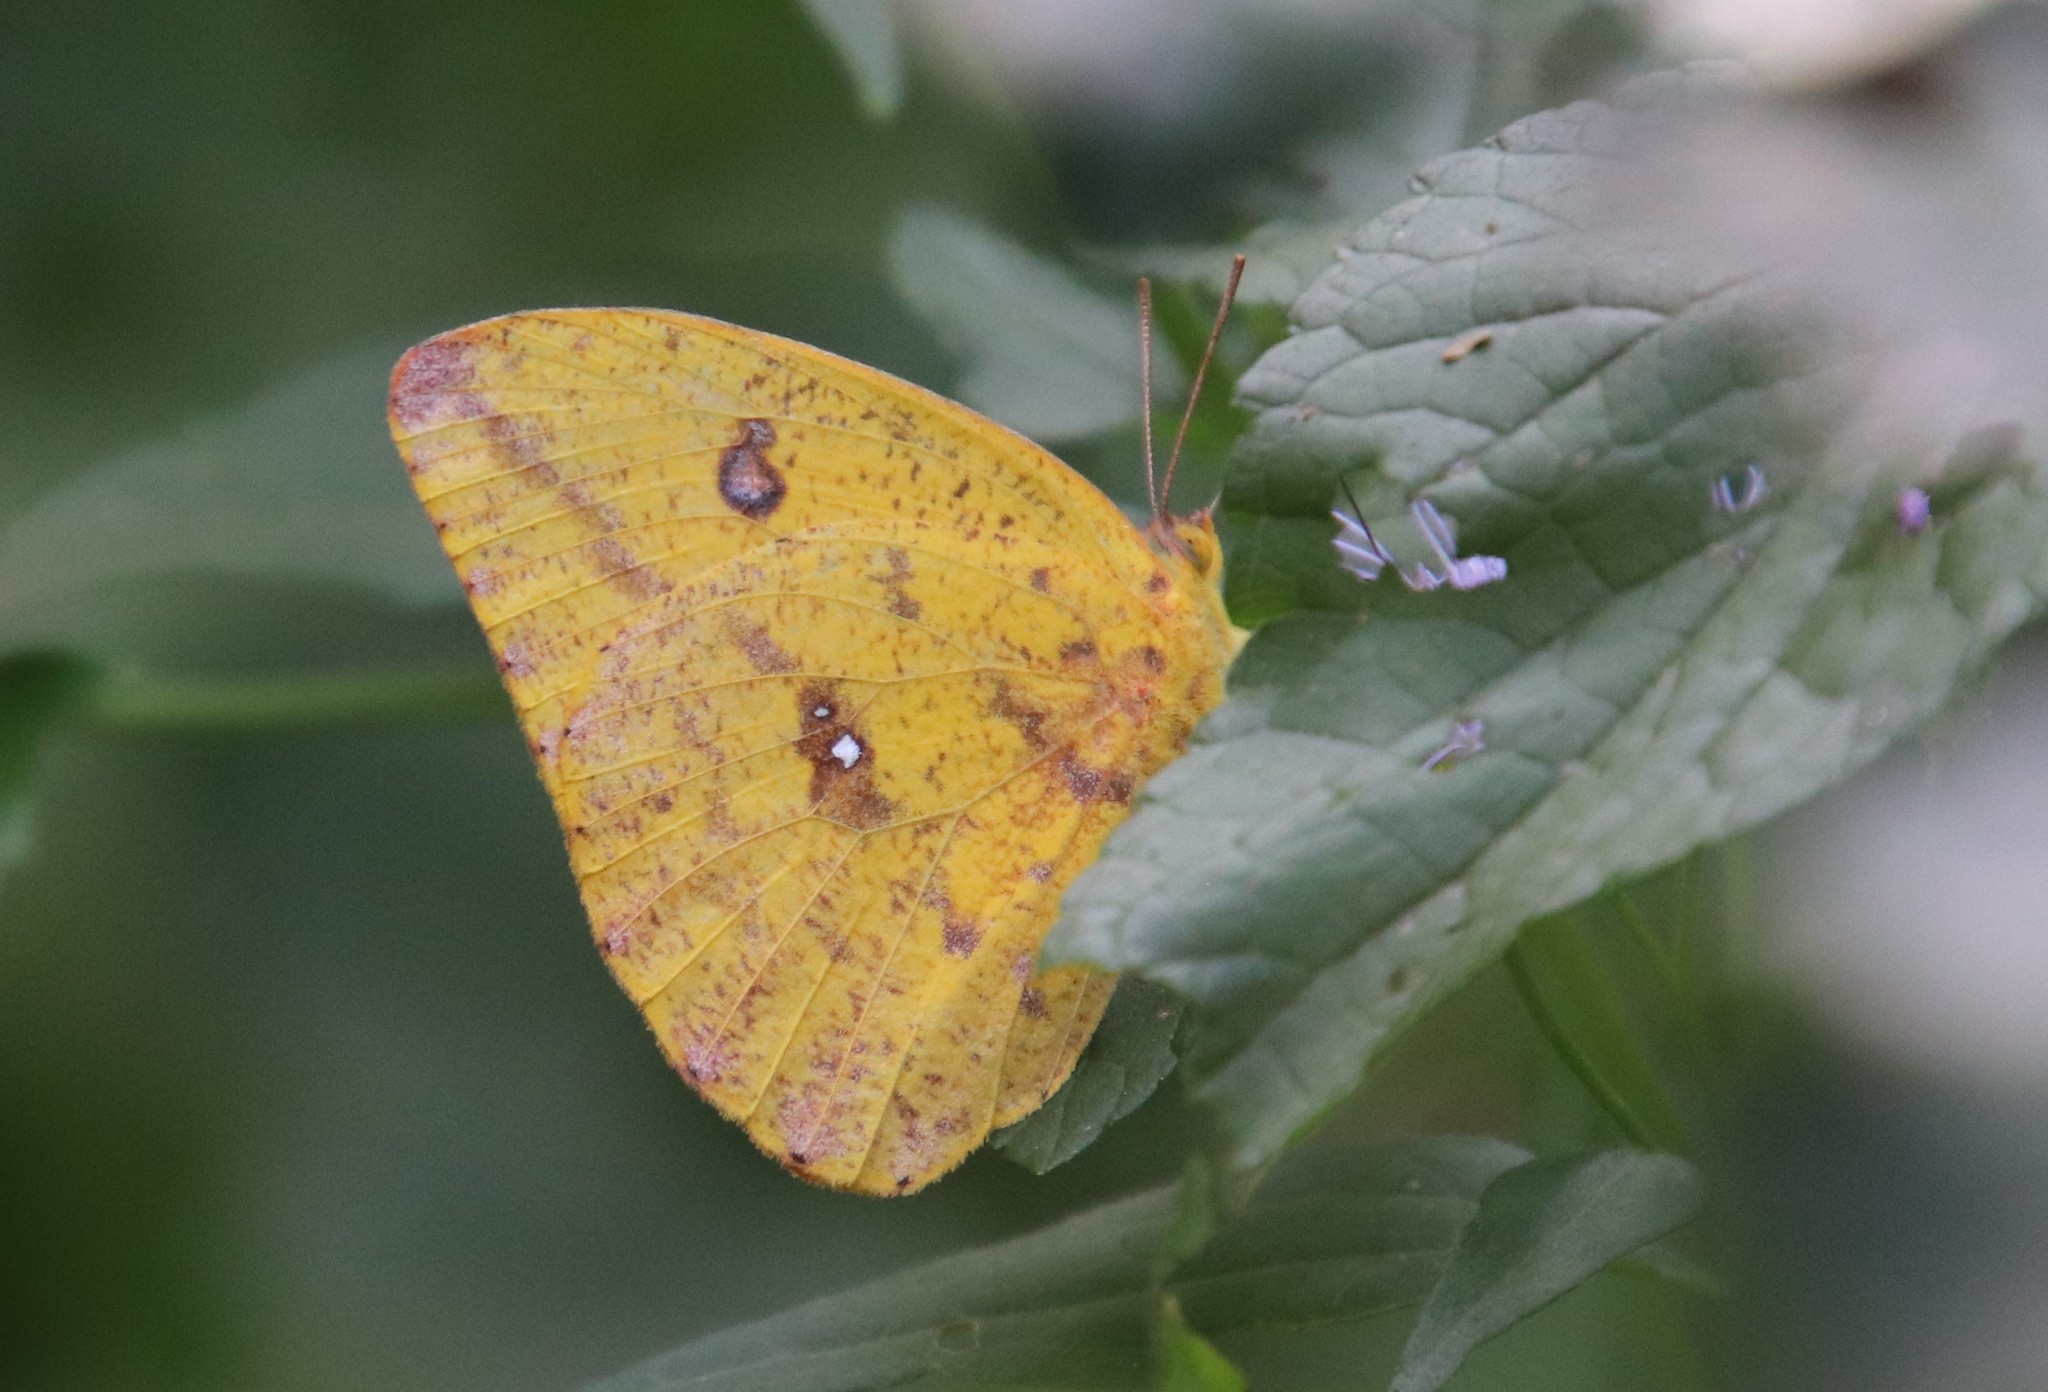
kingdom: Animalia
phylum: Arthropoda
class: Insecta
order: Lepidoptera
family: Pieridae
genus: Phoebis
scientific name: Phoebis agarithe
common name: Large orange sulphur
